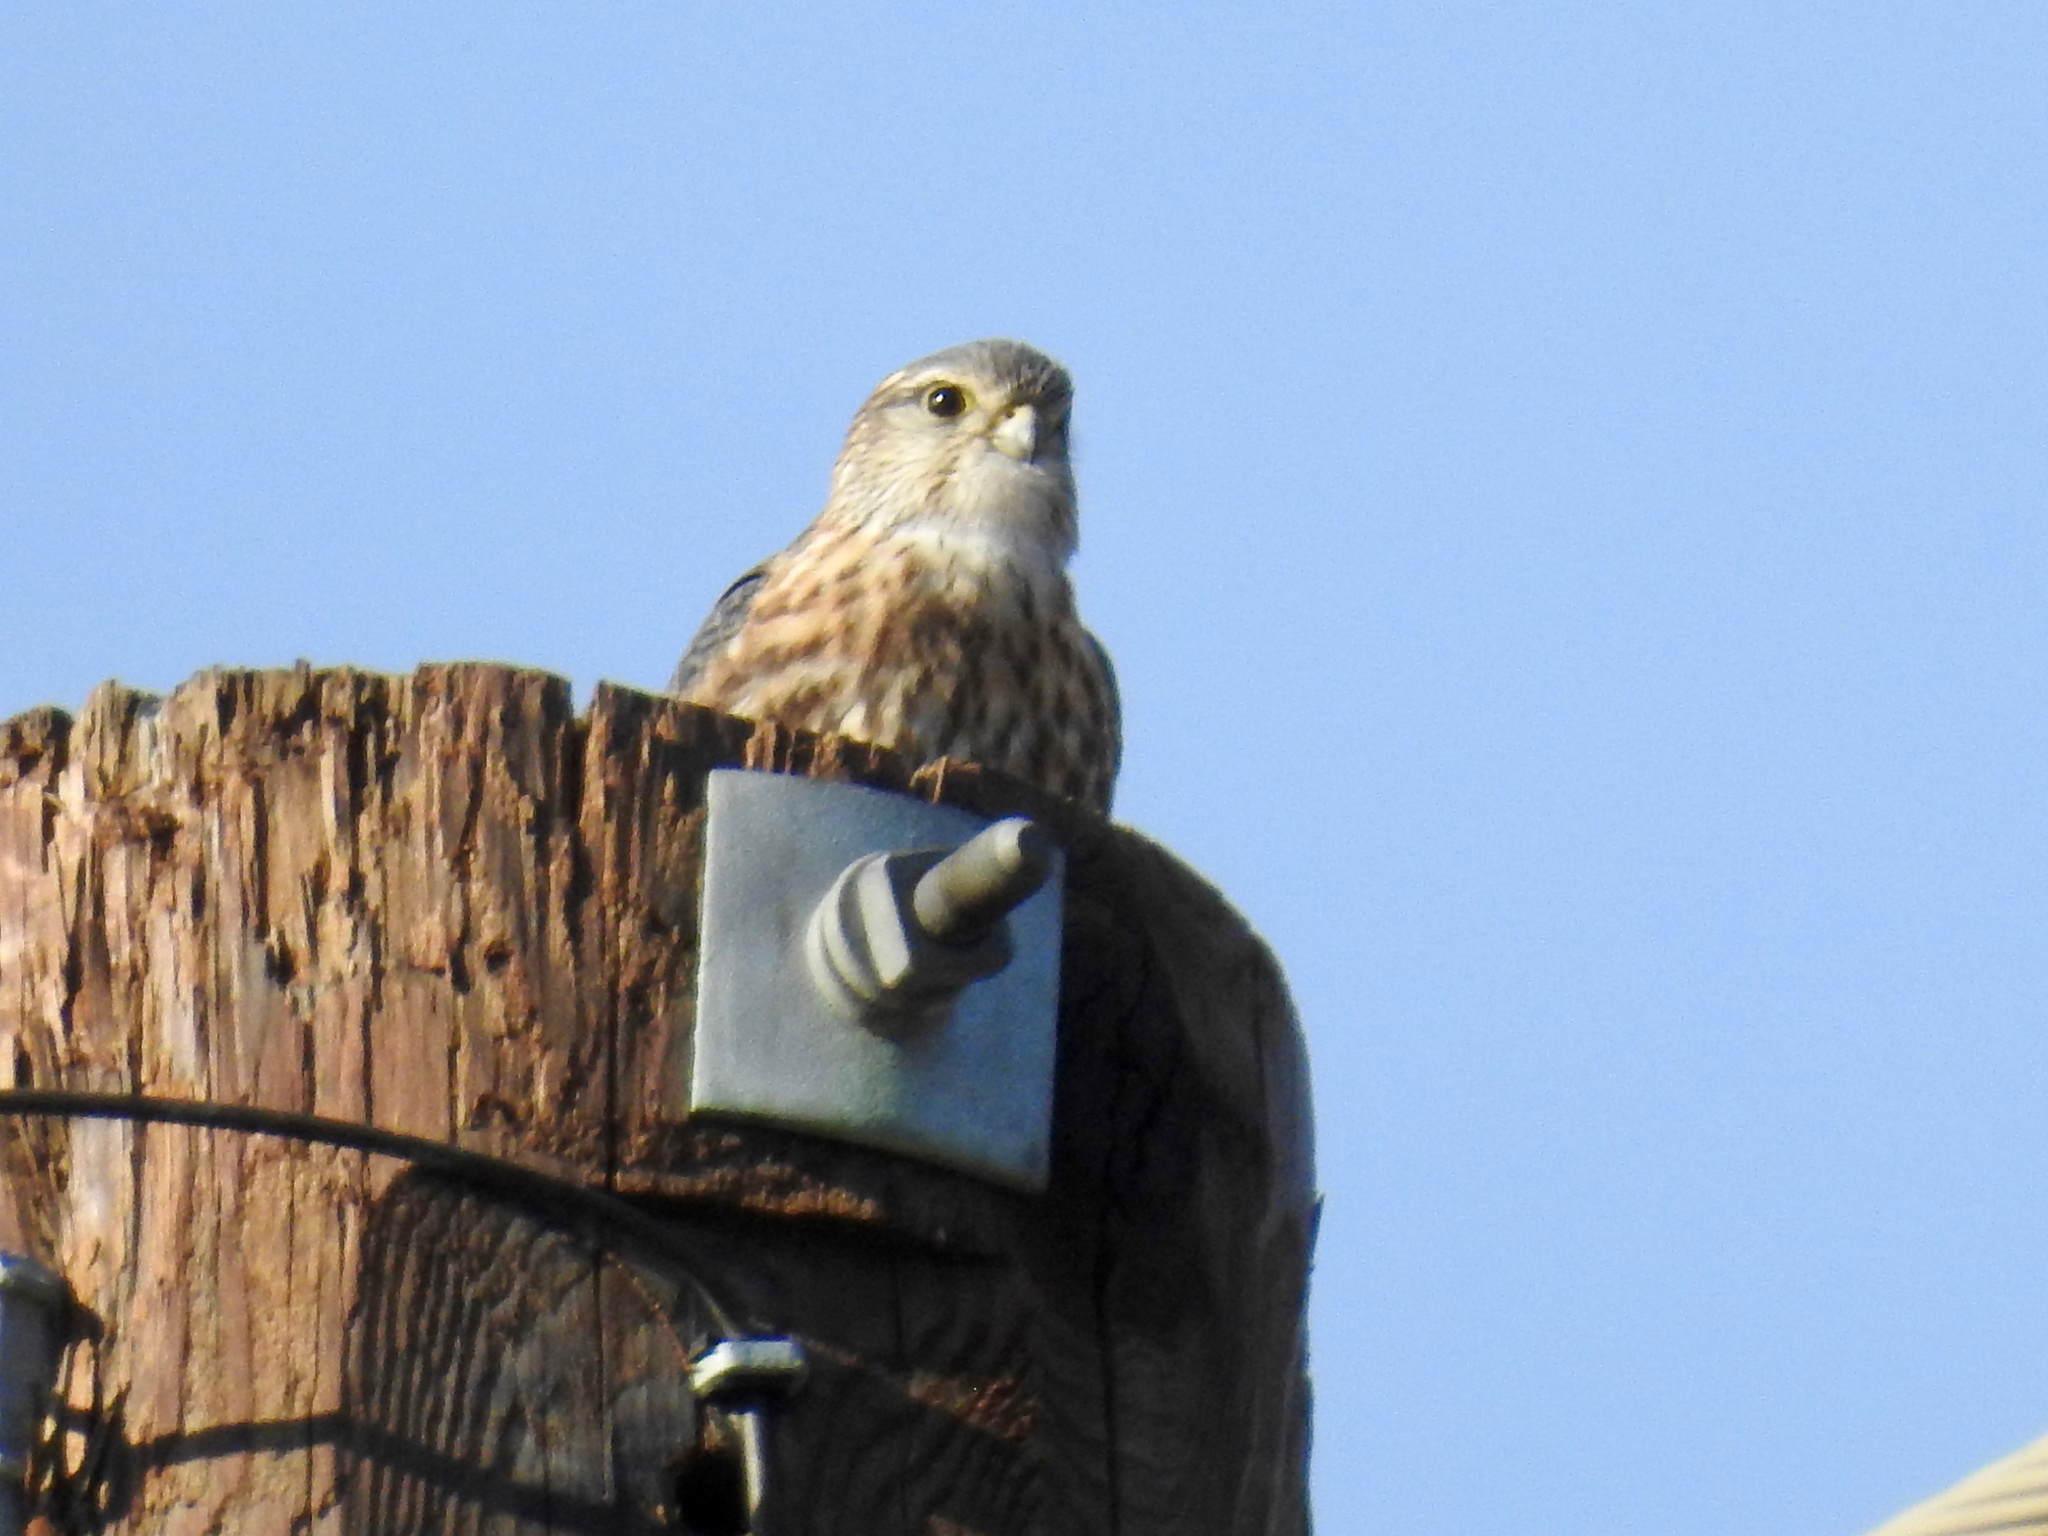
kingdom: Animalia
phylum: Chordata
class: Aves
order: Falconiformes
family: Falconidae
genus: Falco
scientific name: Falco columbarius
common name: Merlin
